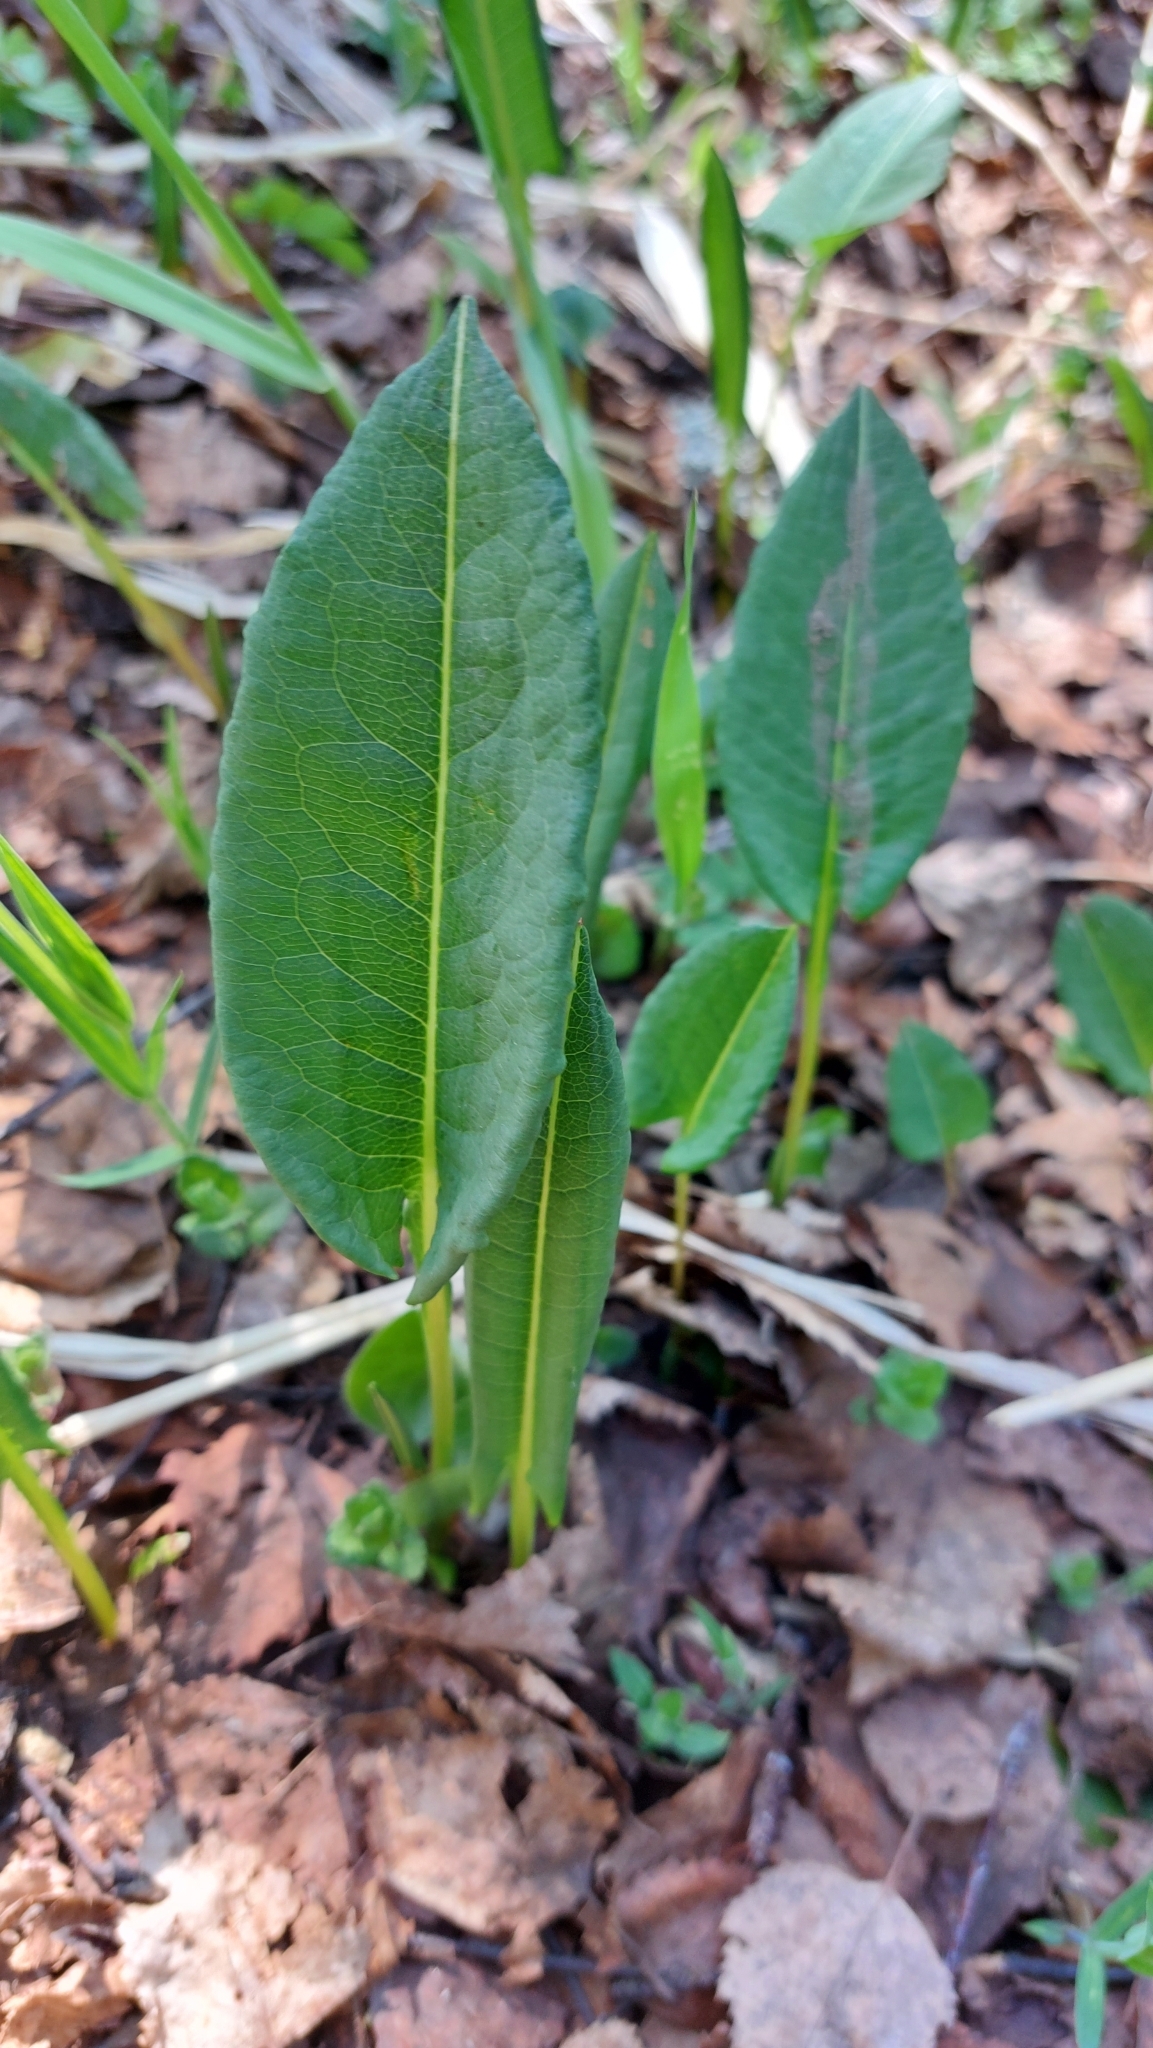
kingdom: Plantae
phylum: Tracheophyta
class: Magnoliopsida
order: Caryophyllales
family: Polygonaceae
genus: Bistorta
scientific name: Bistorta officinalis
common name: Common bistort
